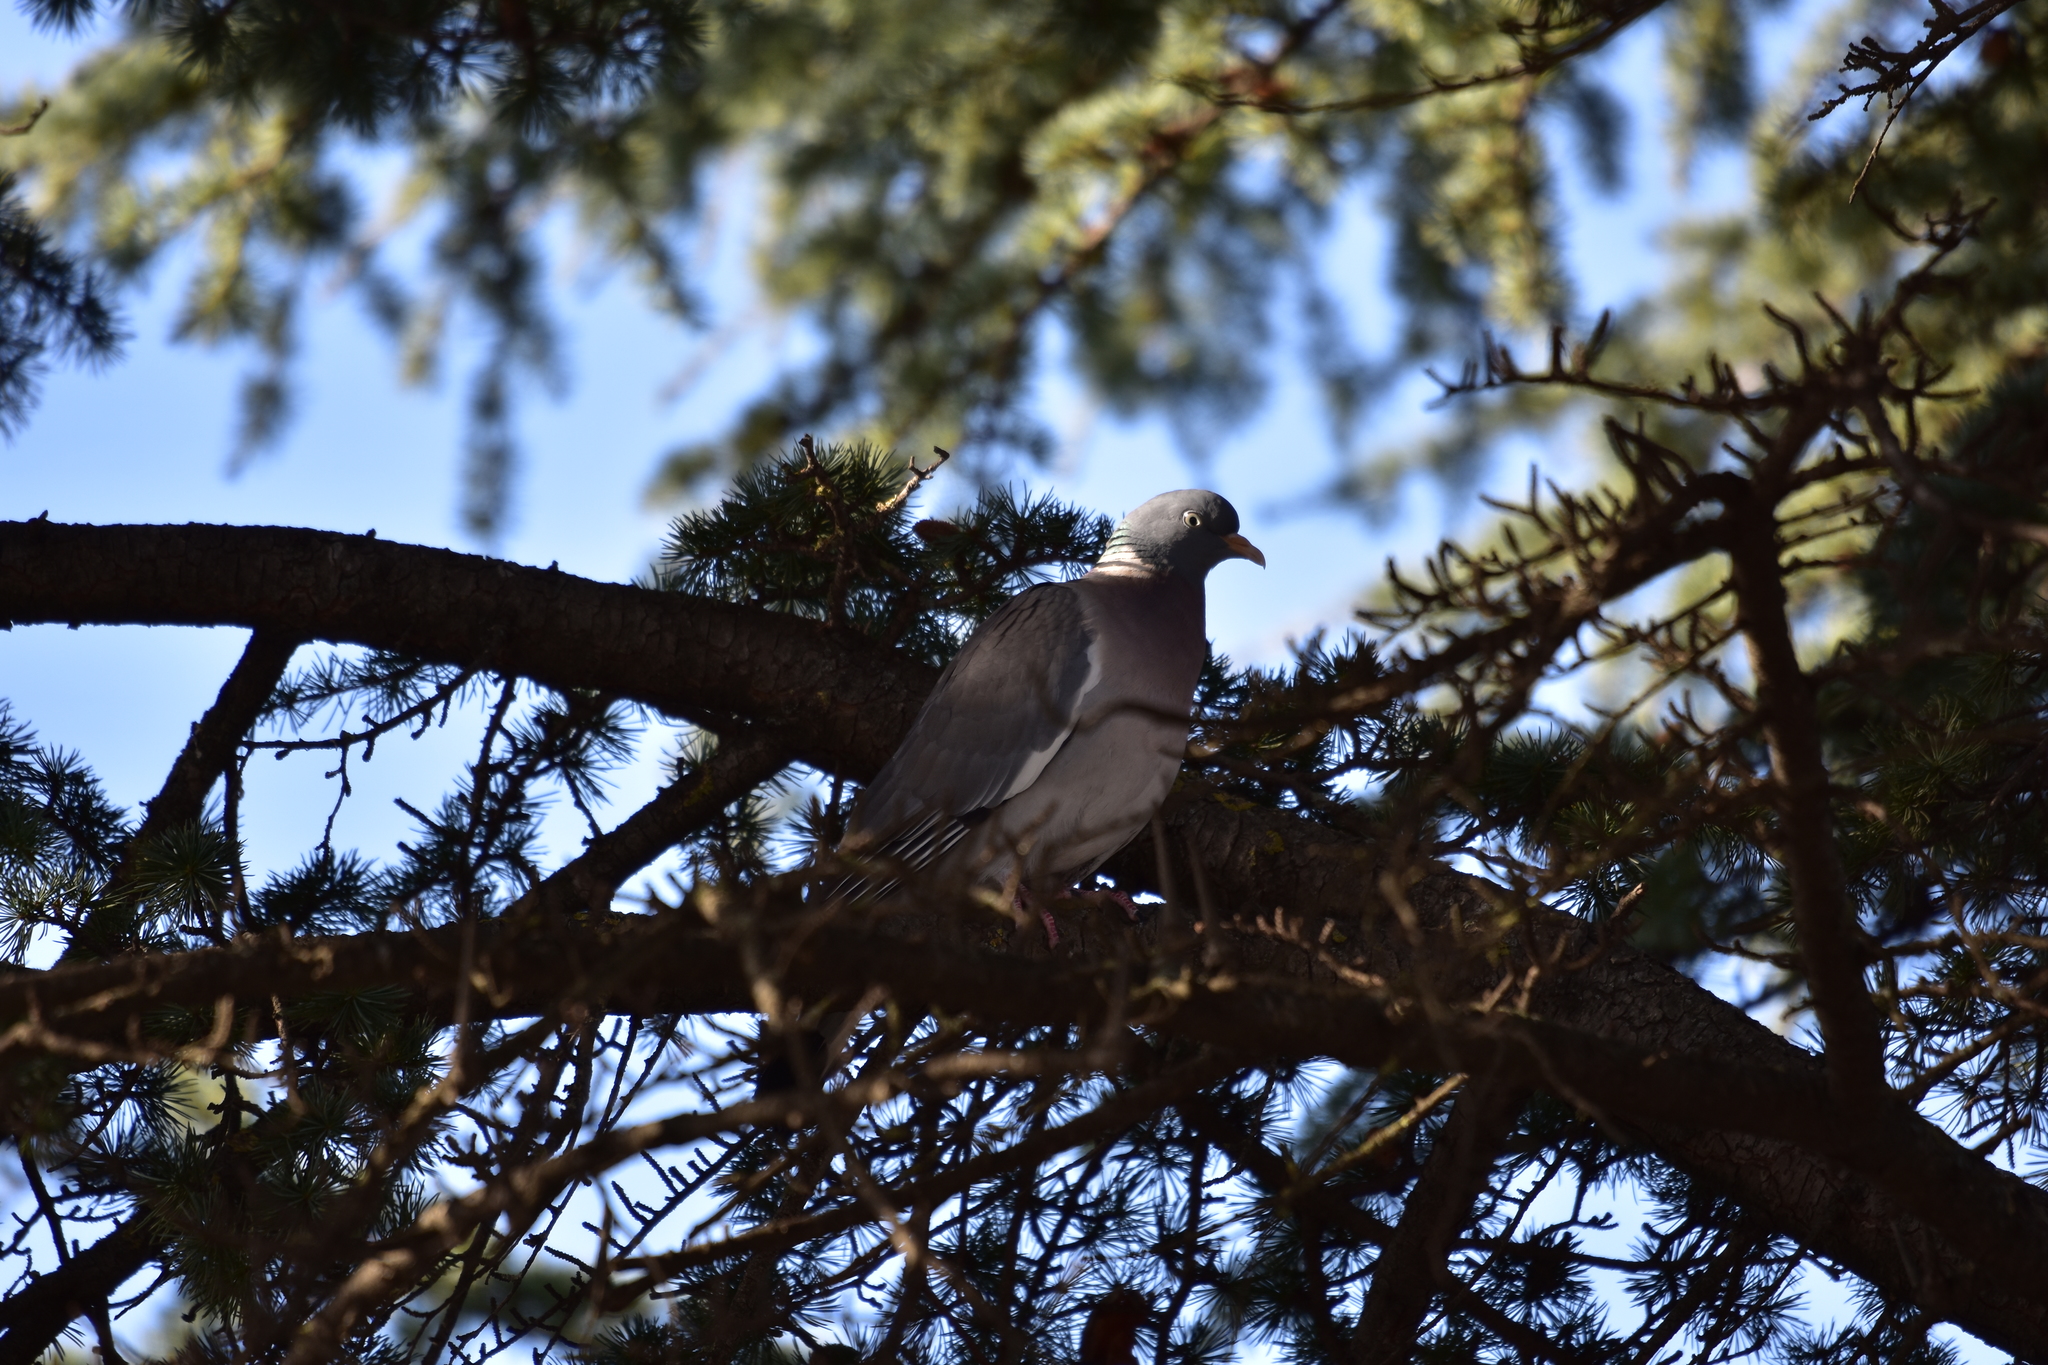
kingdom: Animalia
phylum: Chordata
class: Aves
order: Columbiformes
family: Columbidae
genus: Columba
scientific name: Columba palumbus
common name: Common wood pigeon
